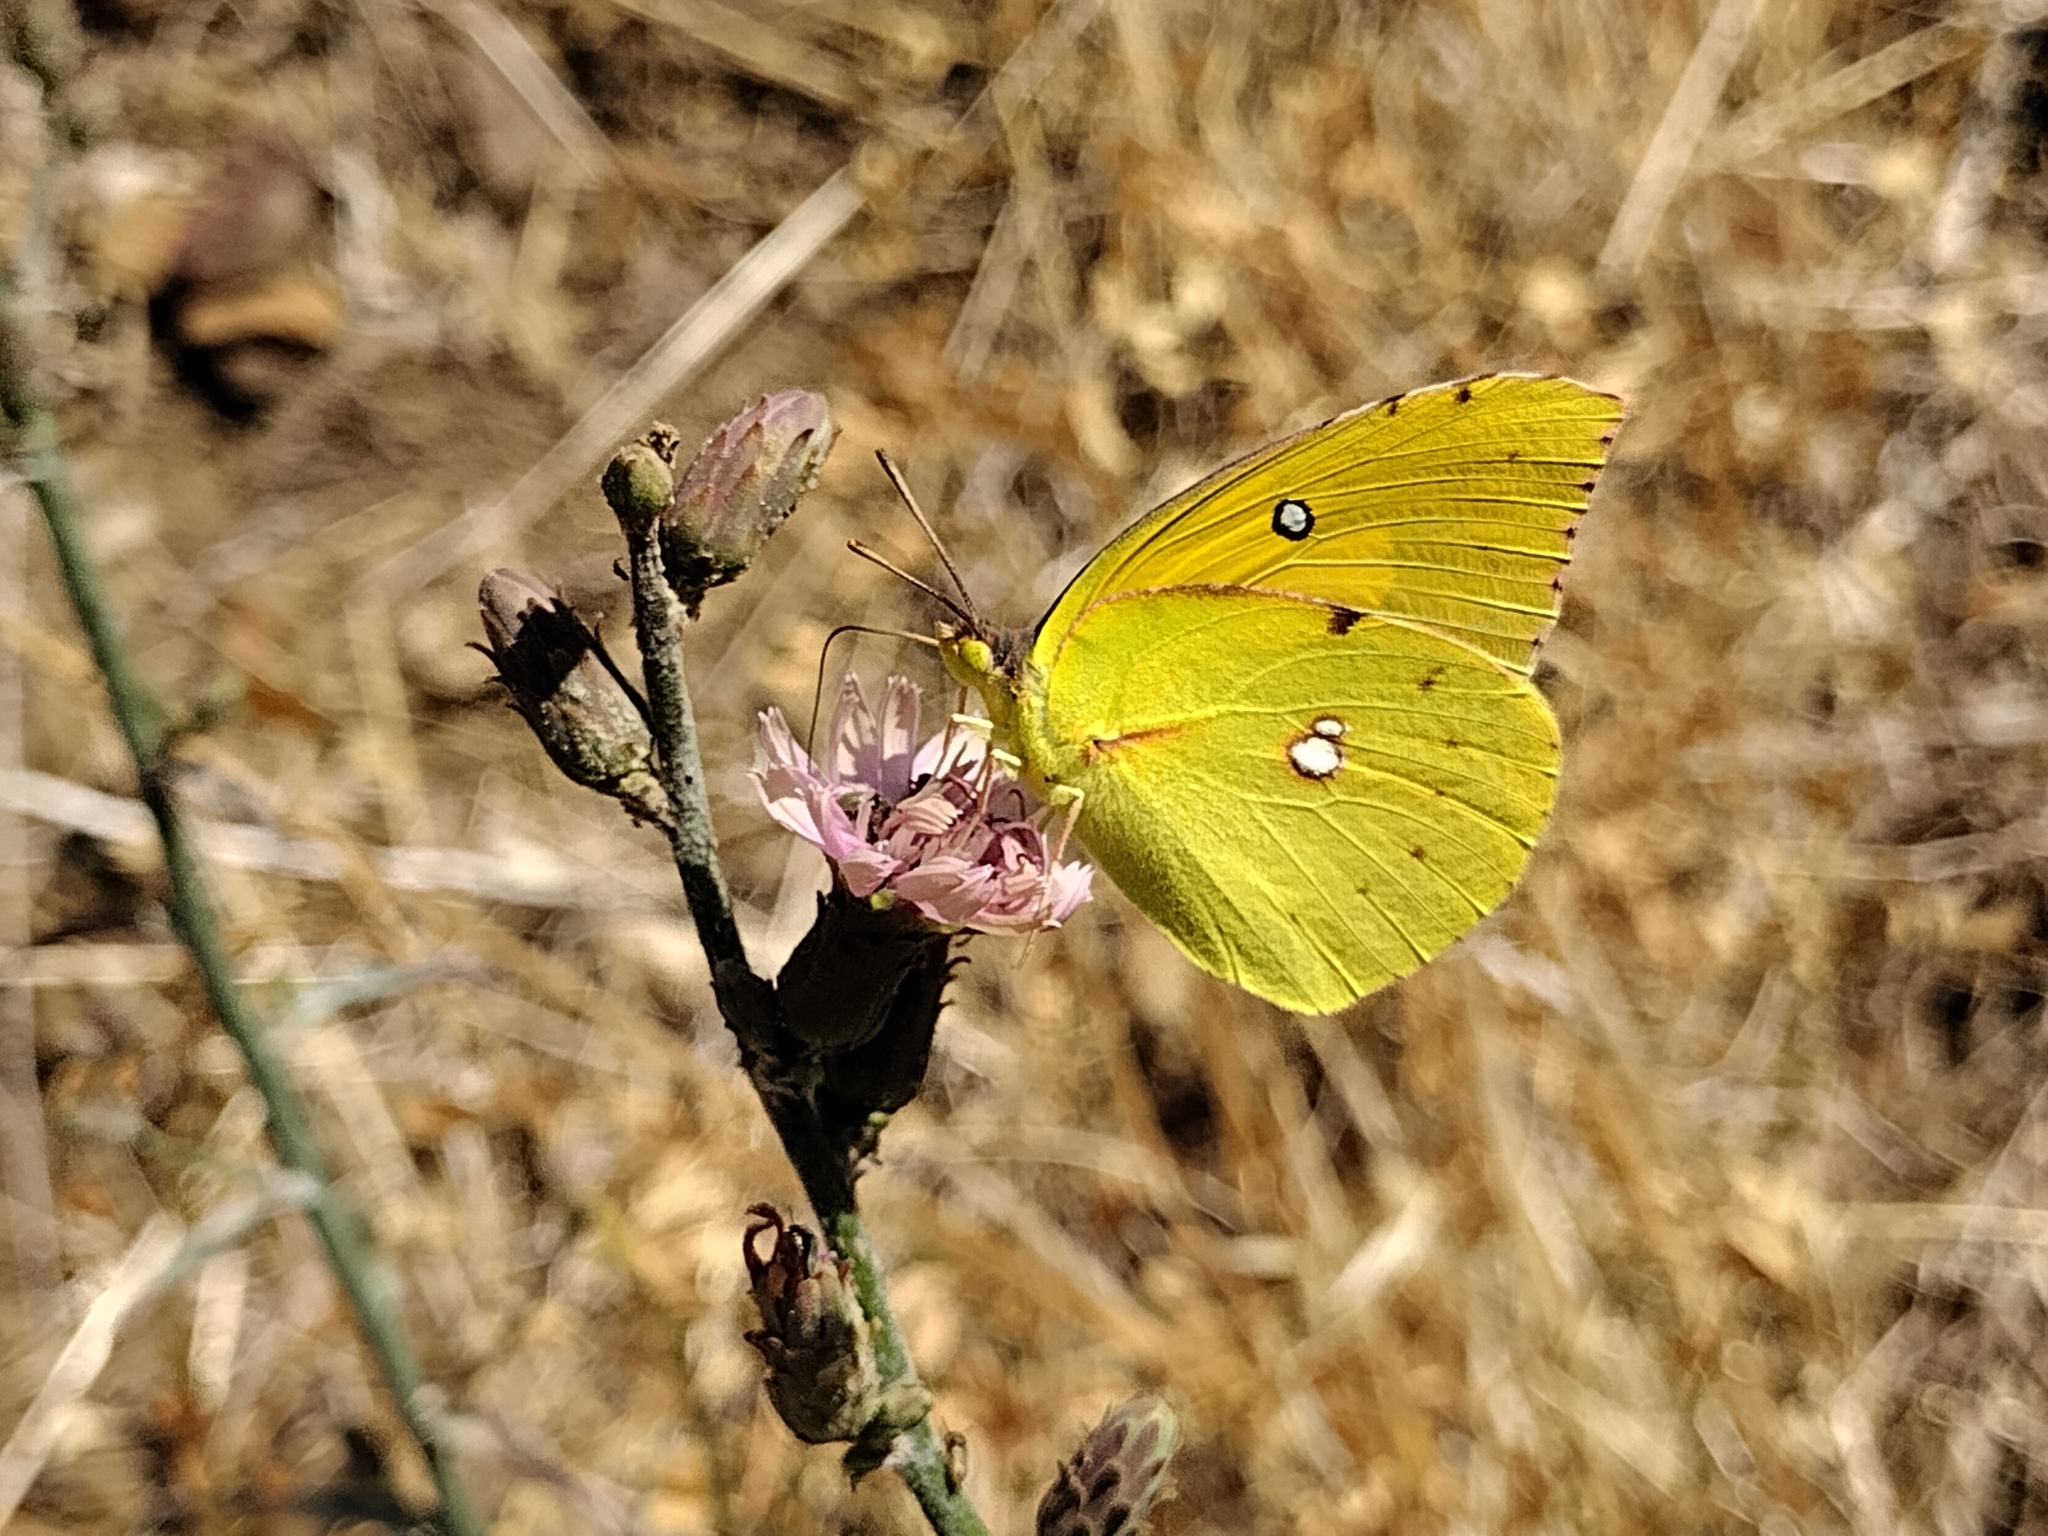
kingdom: Animalia
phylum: Arthropoda
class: Insecta
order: Lepidoptera
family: Pieridae
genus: Zerene
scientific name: Zerene eurydice
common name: California dogface
